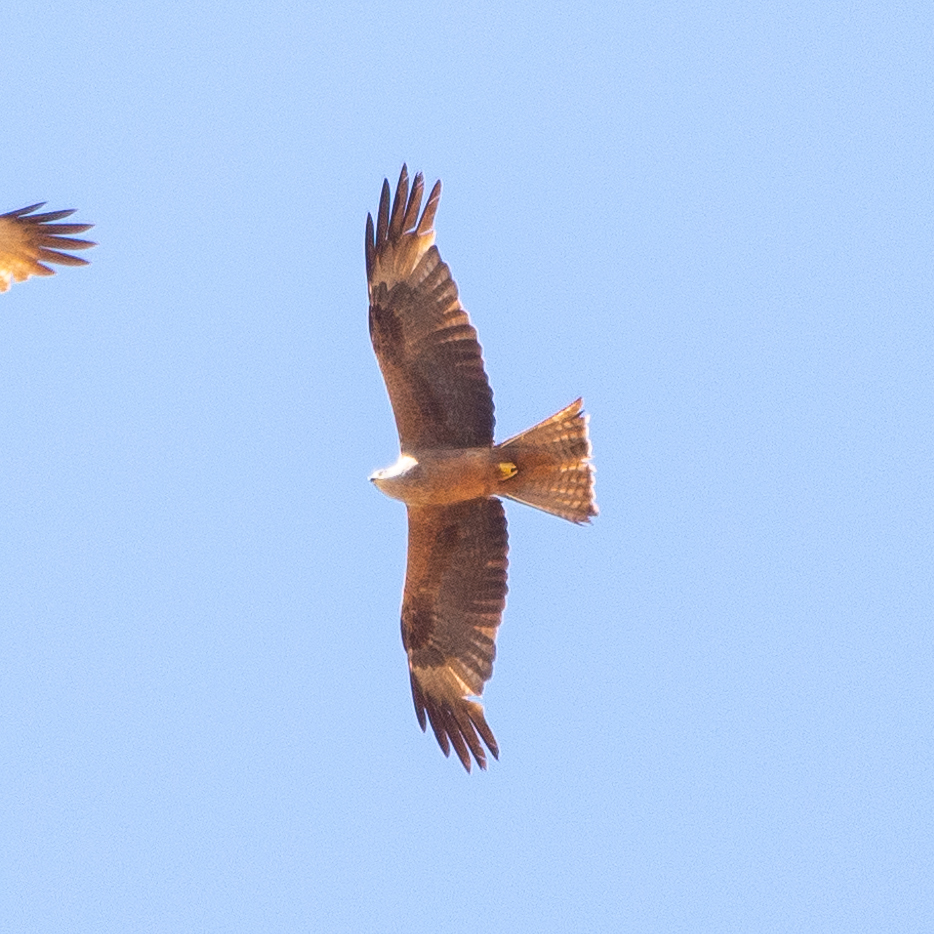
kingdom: Animalia
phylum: Chordata
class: Aves
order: Accipitriformes
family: Accipitridae
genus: Milvus
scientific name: Milvus migrans
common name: Black kite
